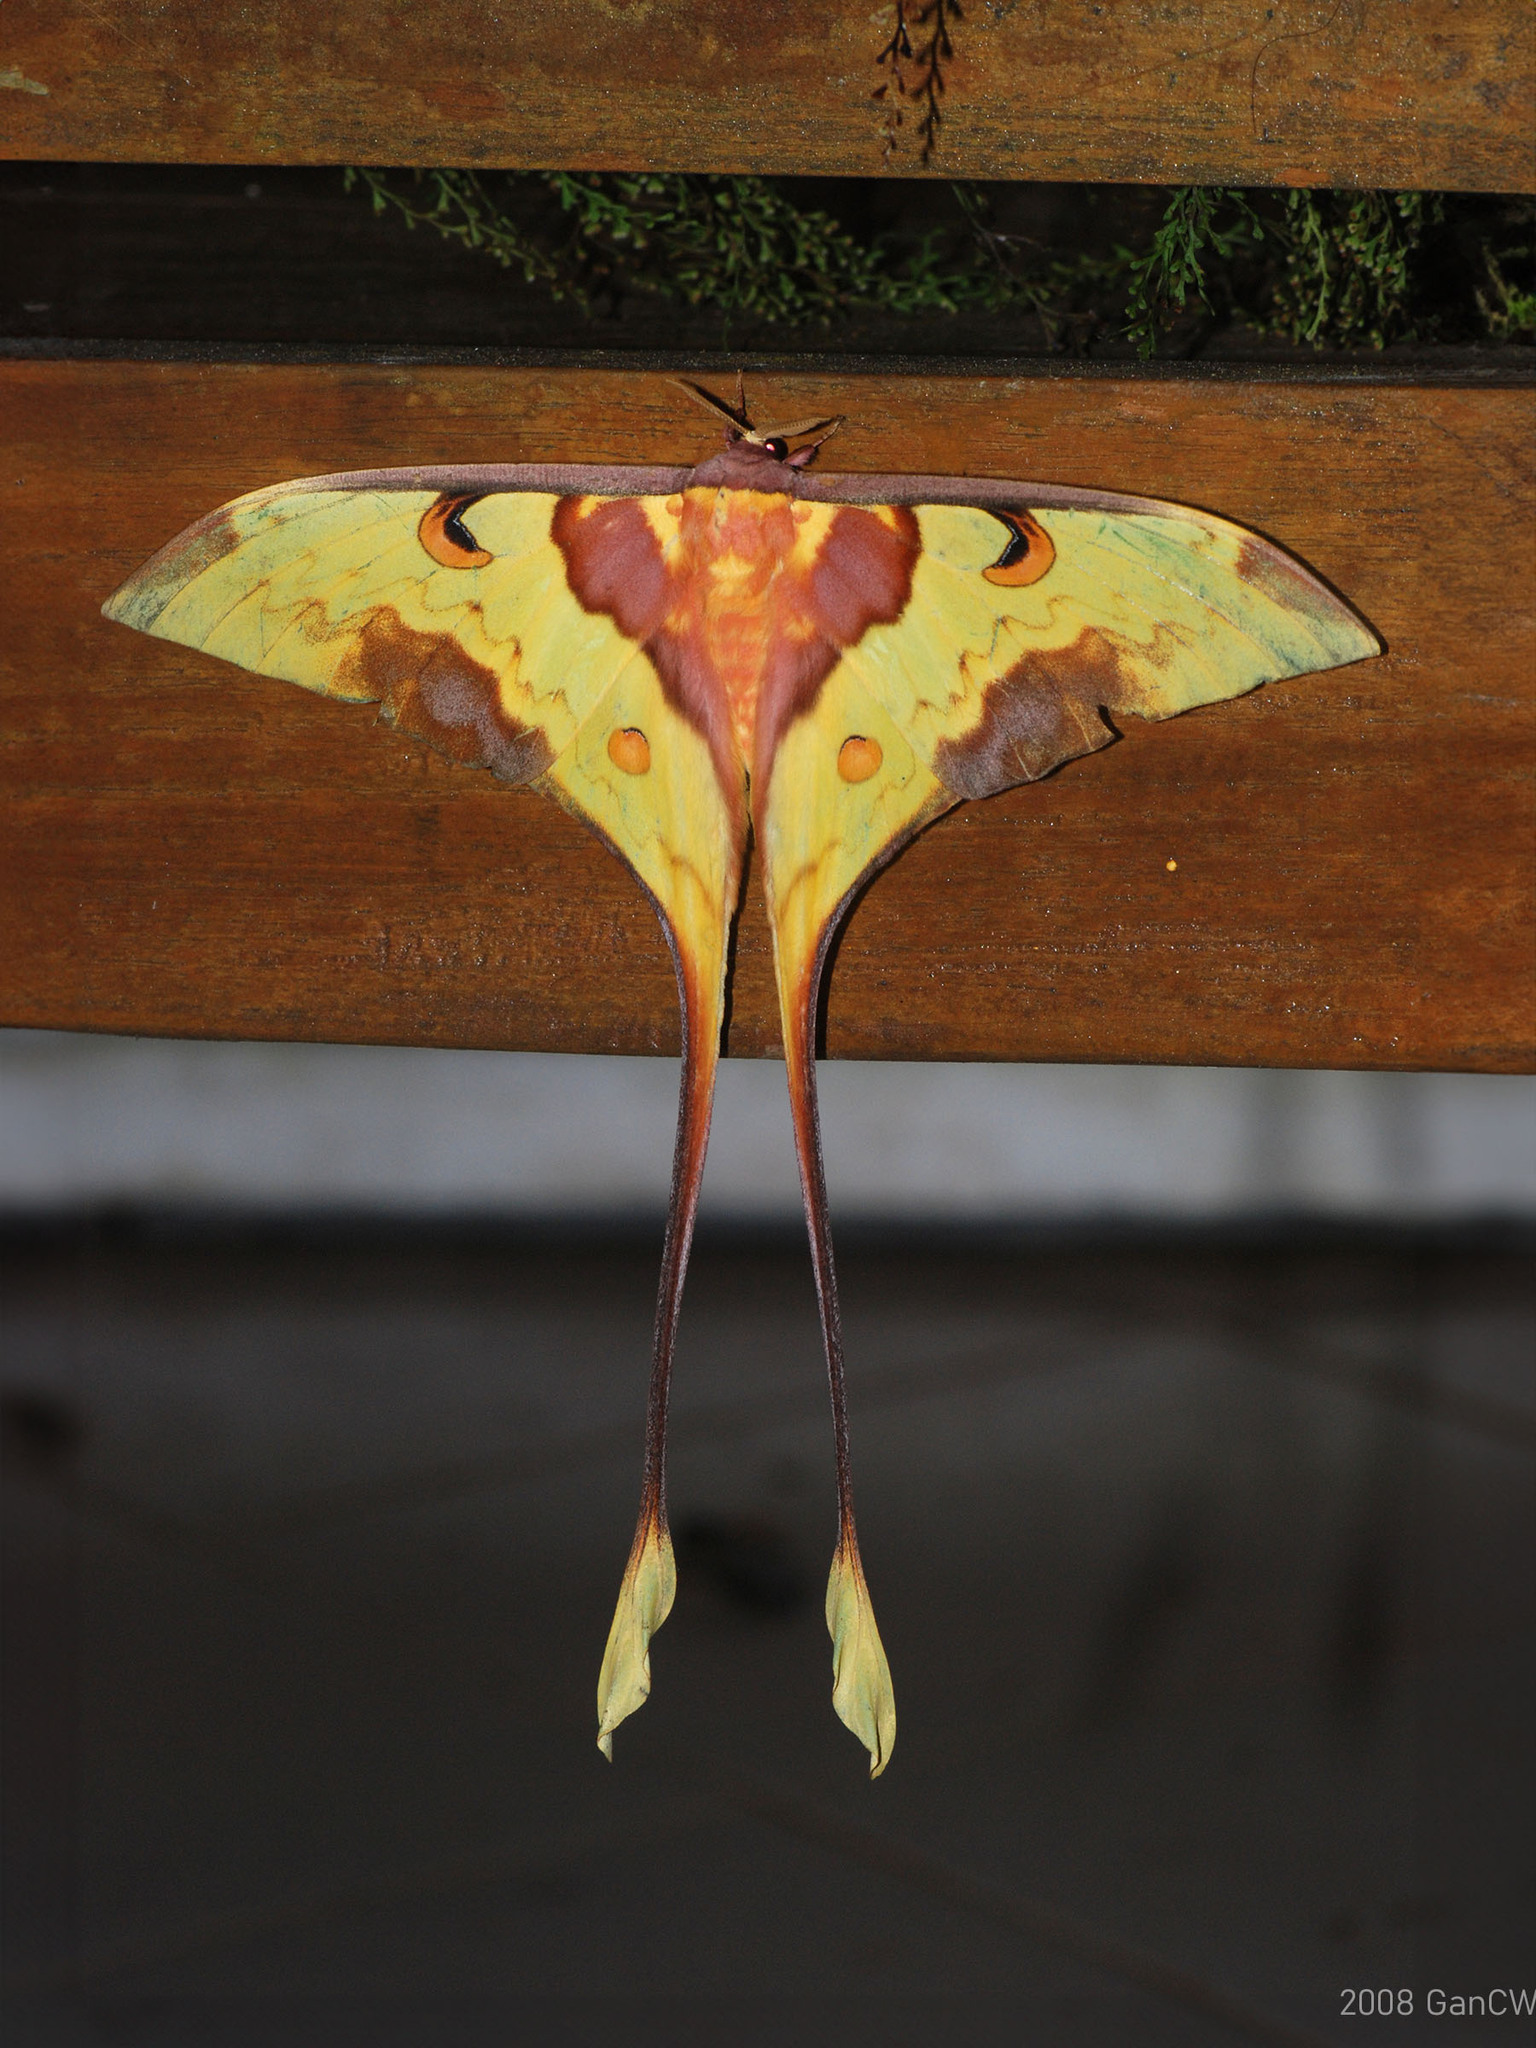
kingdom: Animalia
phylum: Arthropoda
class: Insecta
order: Lepidoptera
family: Saturniidae
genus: Actias
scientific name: Actias maenas
